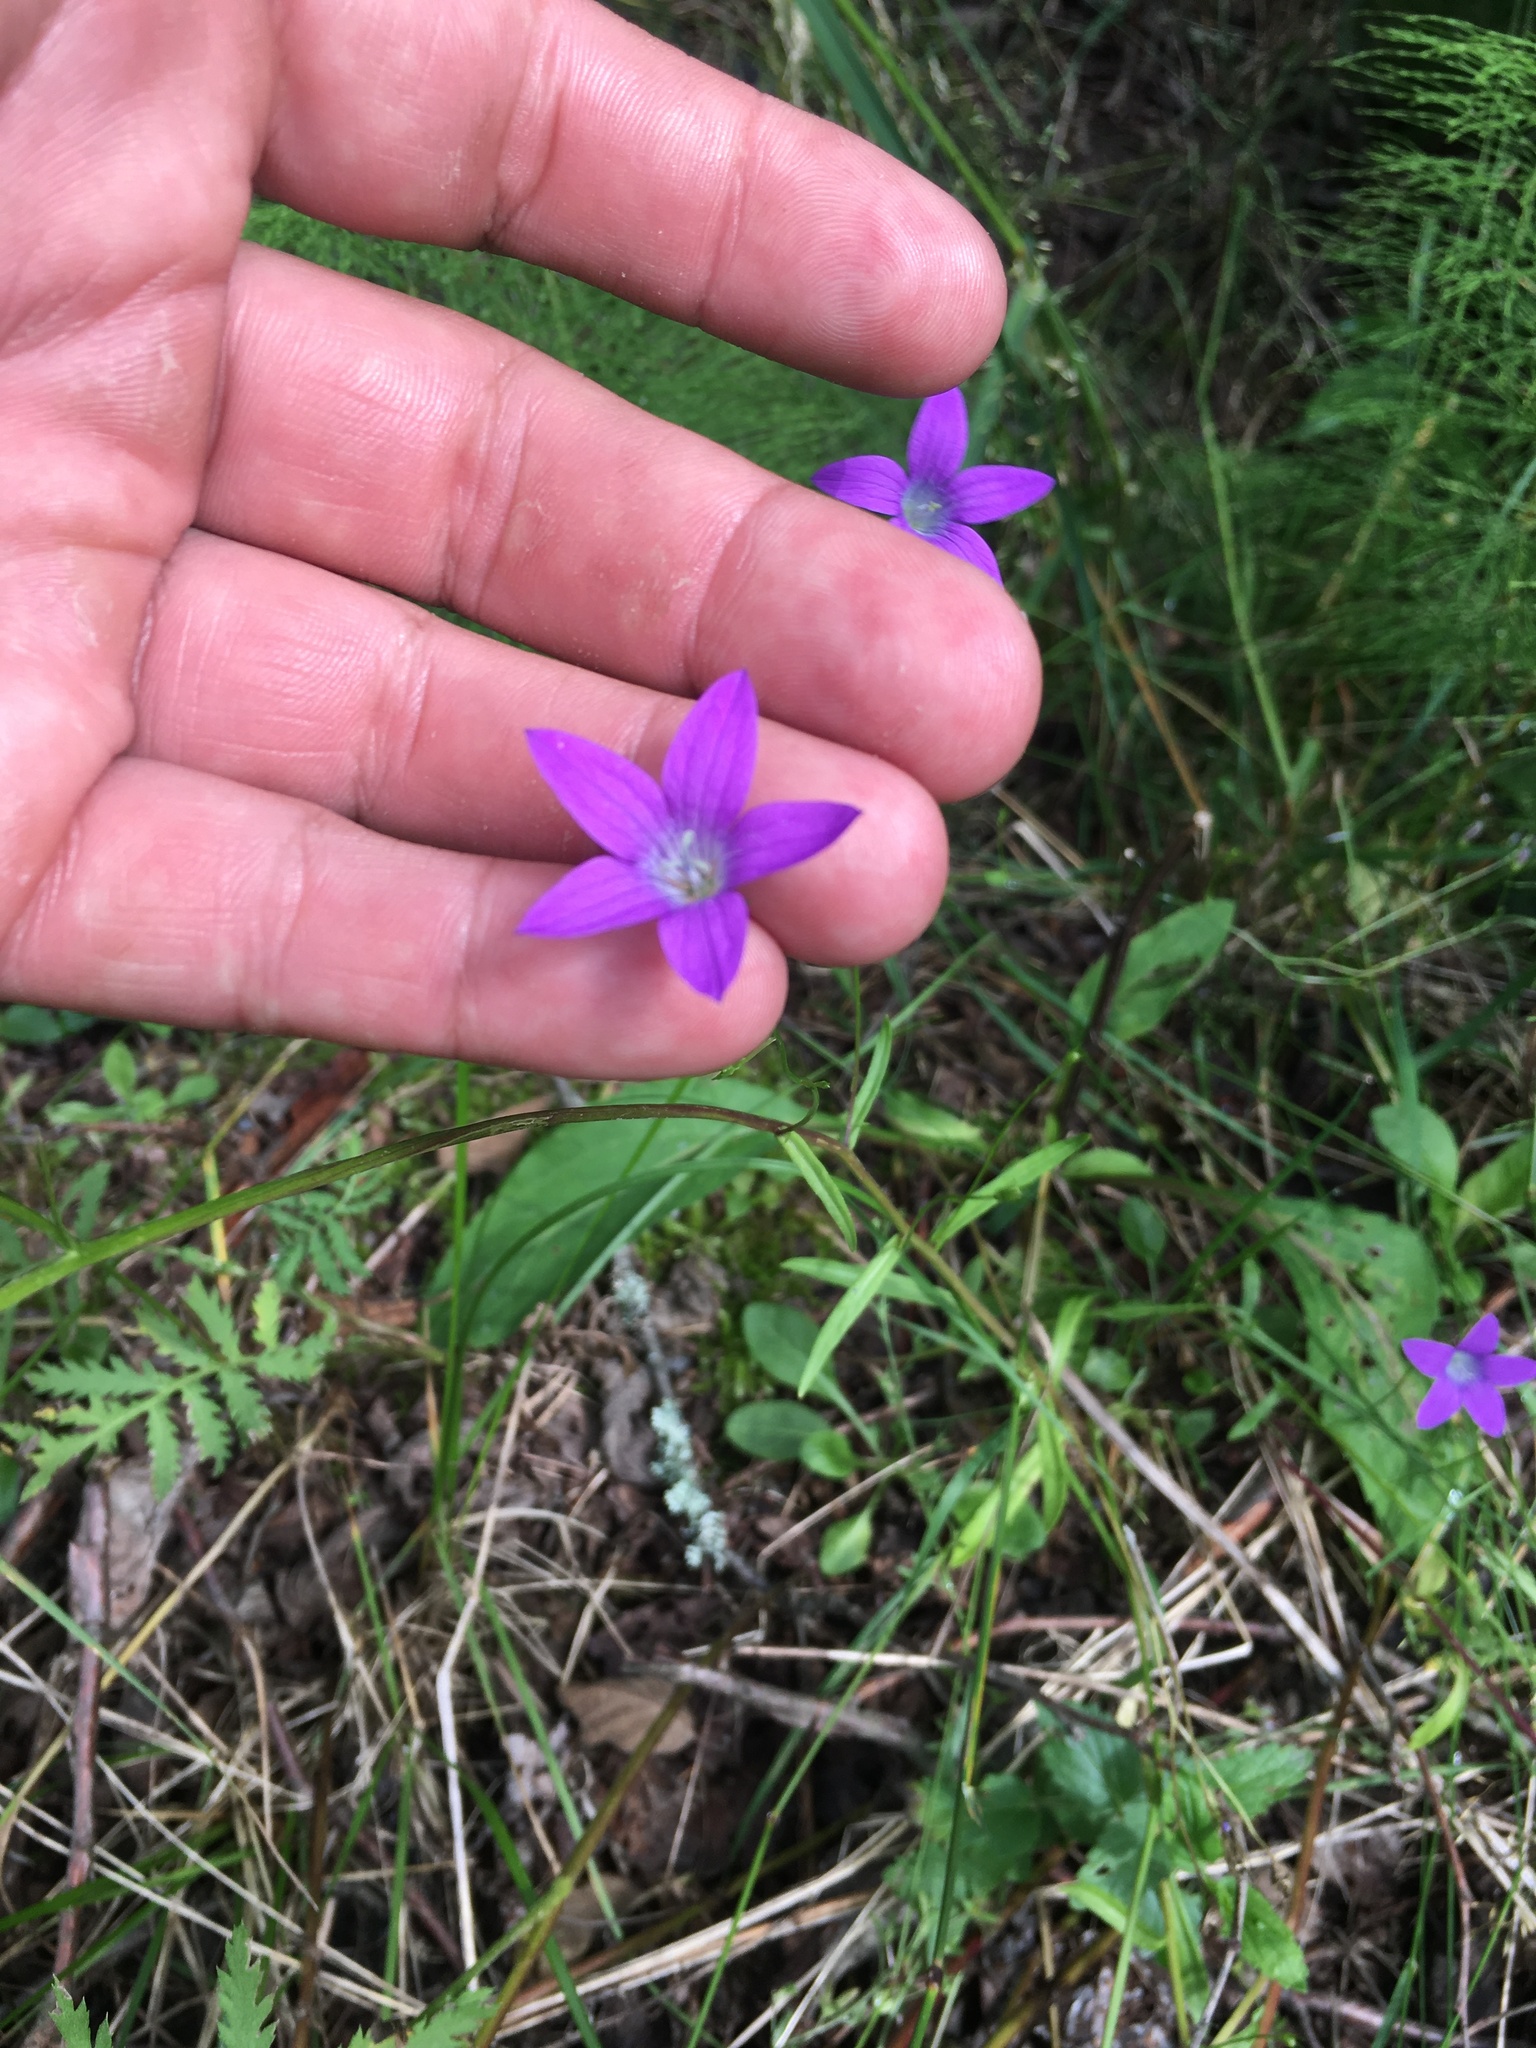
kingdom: Plantae
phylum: Tracheophyta
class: Magnoliopsida
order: Asterales
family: Campanulaceae
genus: Campanula
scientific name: Campanula patula
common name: Spreading bellflower
